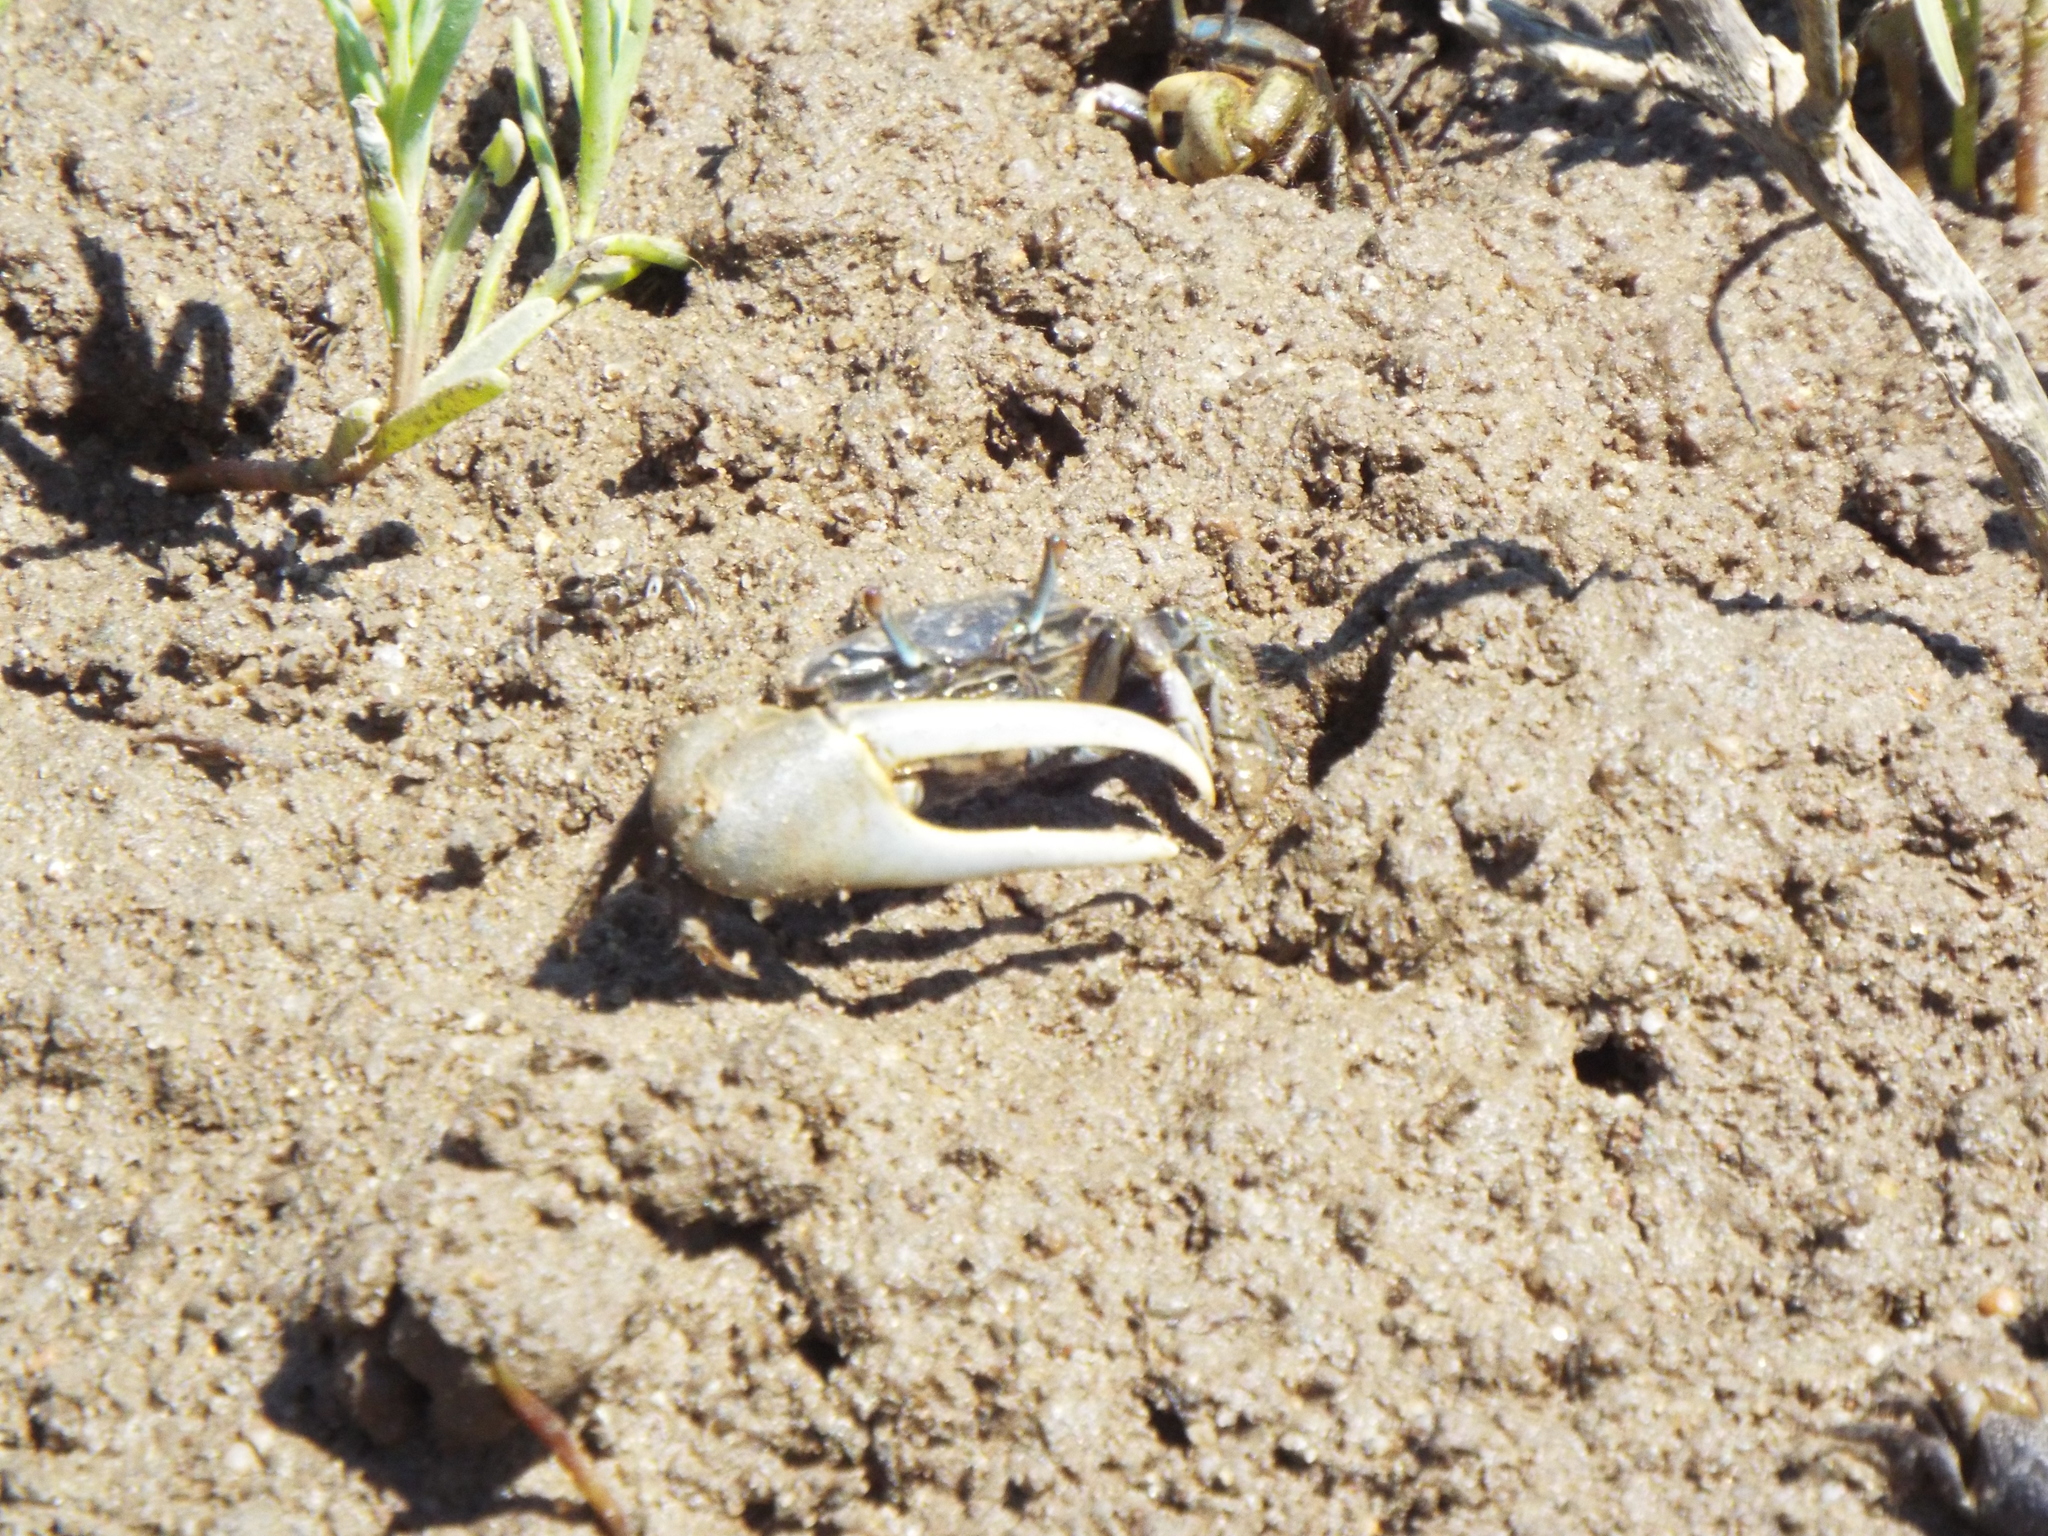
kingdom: Animalia
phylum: Arthropoda
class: Malacostraca
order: Decapoda
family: Ocypodidae
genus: Minuca
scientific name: Minuca pugnax
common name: Mud fiddler crab
